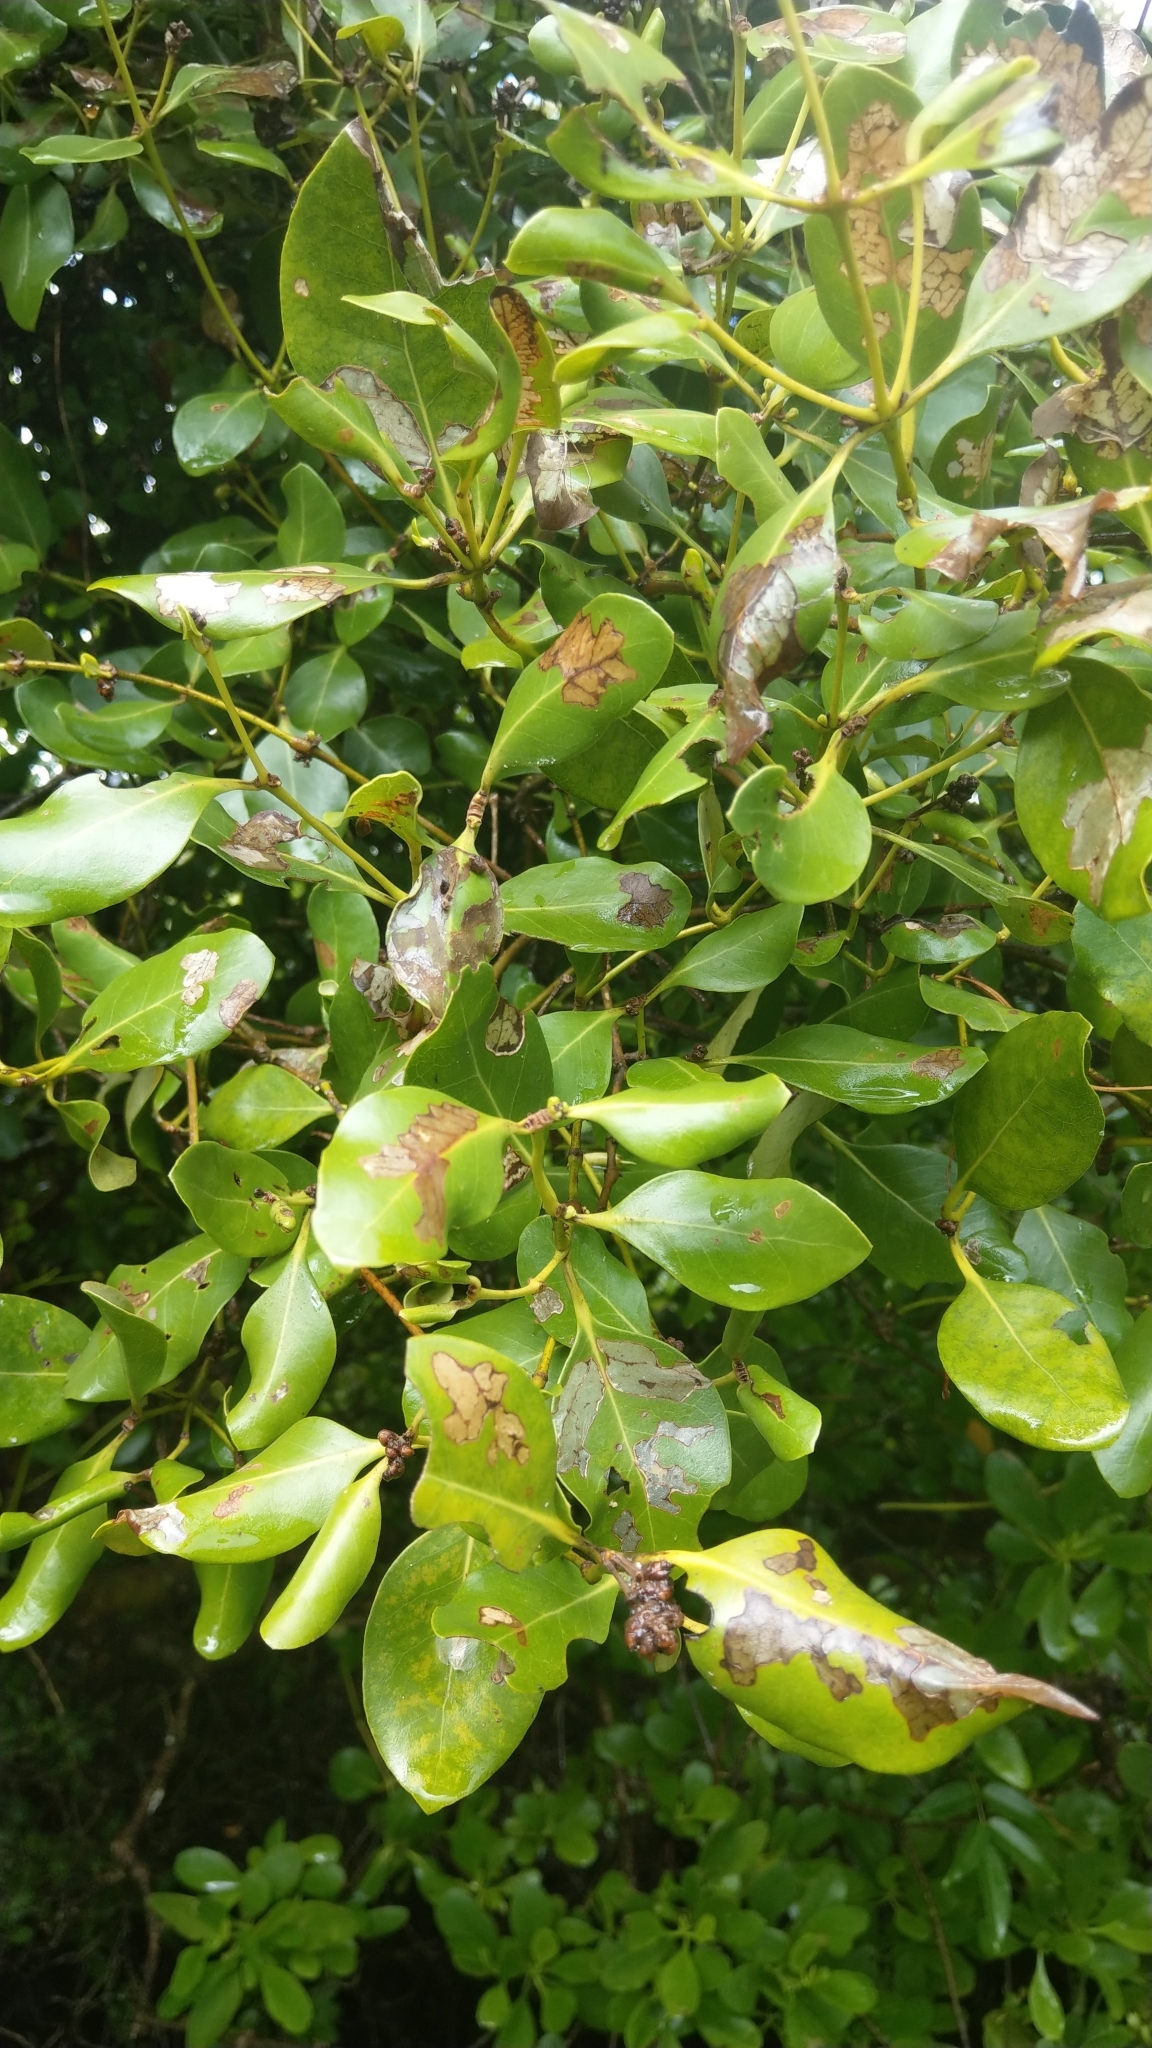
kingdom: Plantae
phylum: Tracheophyta
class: Magnoliopsida
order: Lamiales
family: Acanthaceae
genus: Avicennia
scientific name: Avicennia marina
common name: Gray mangrove
